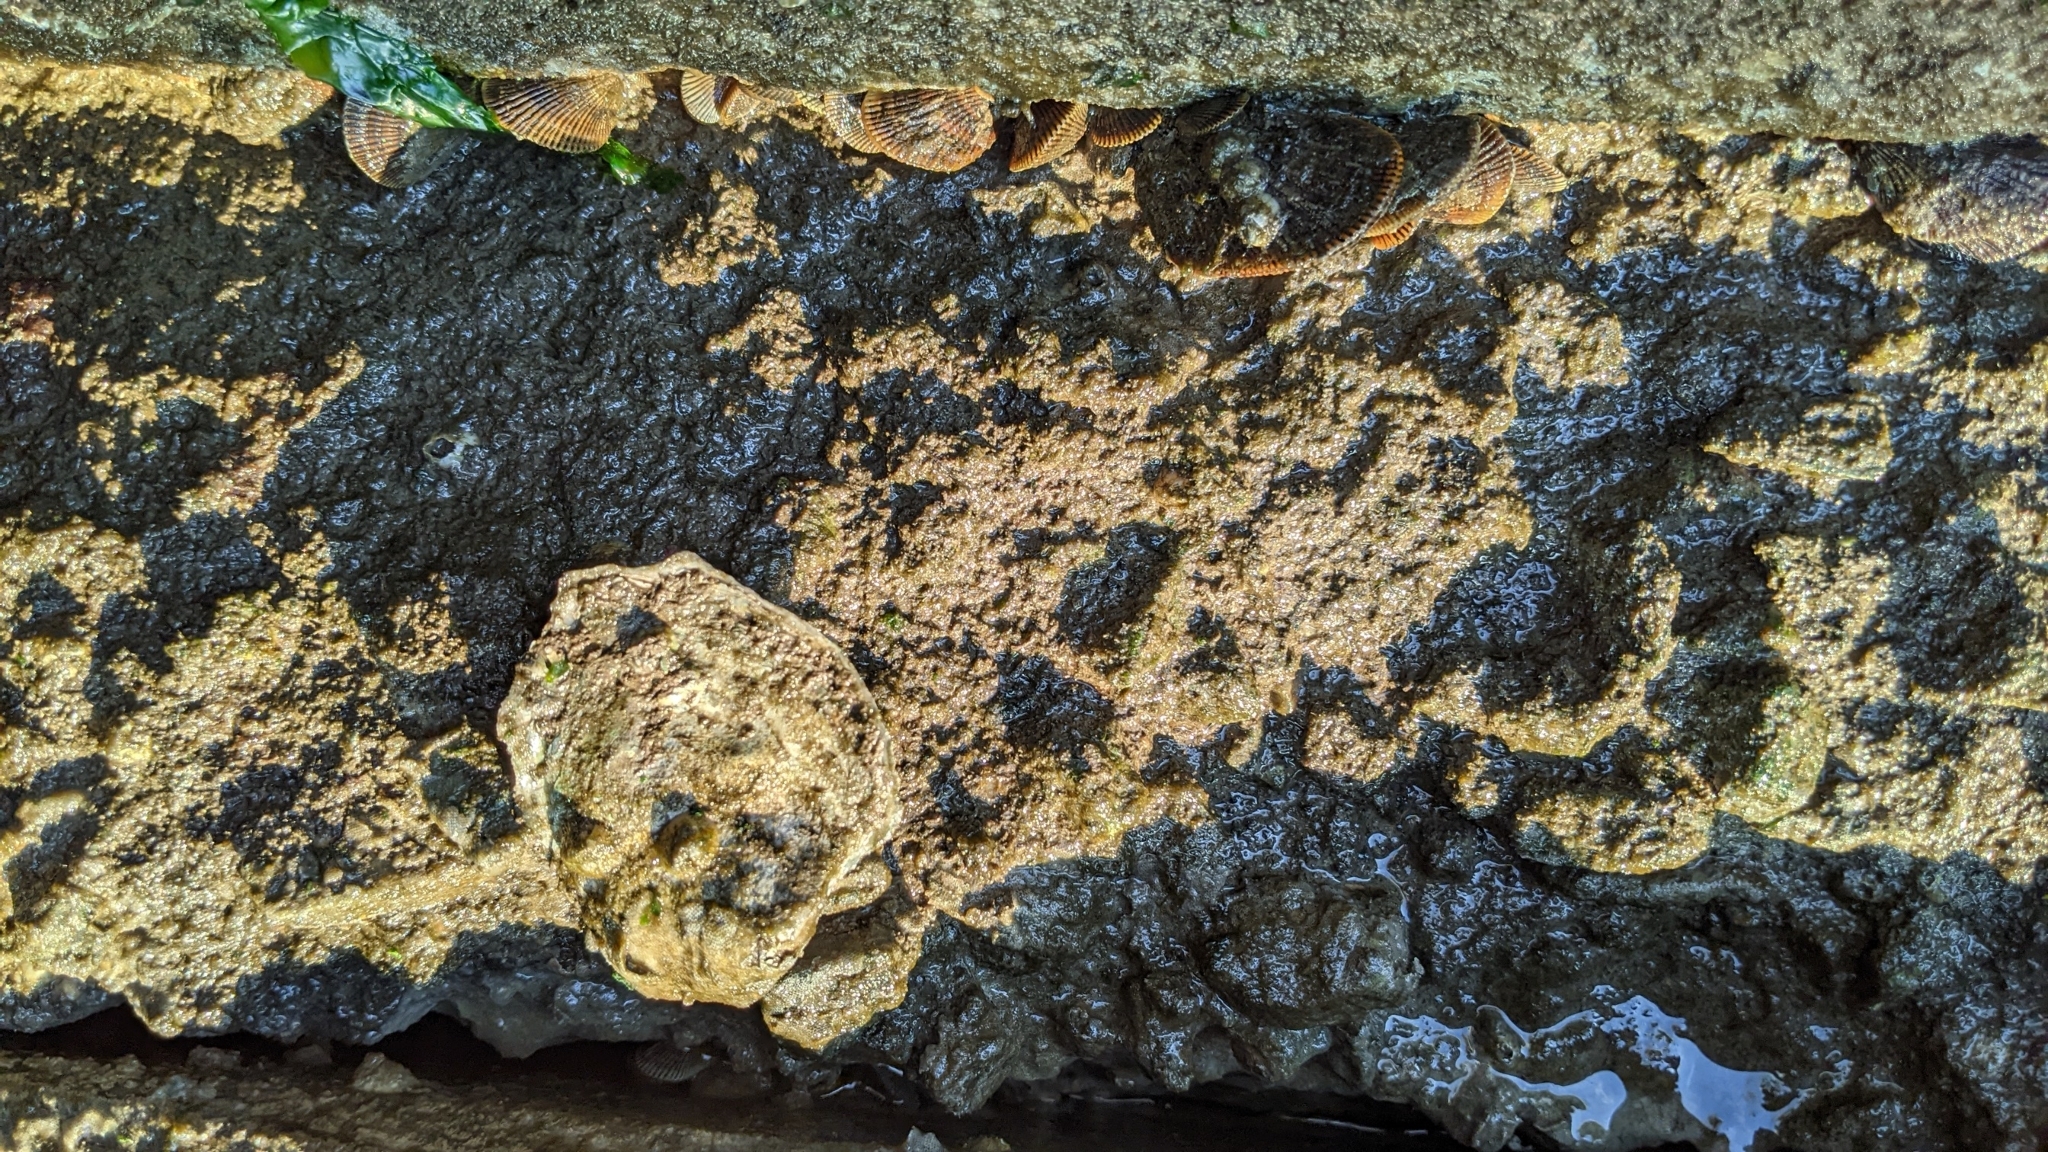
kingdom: Animalia
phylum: Mollusca
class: Bivalvia
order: Mytilida
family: Mytilidae
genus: Geukensia
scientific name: Geukensia demissa
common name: Ribbed mussel
